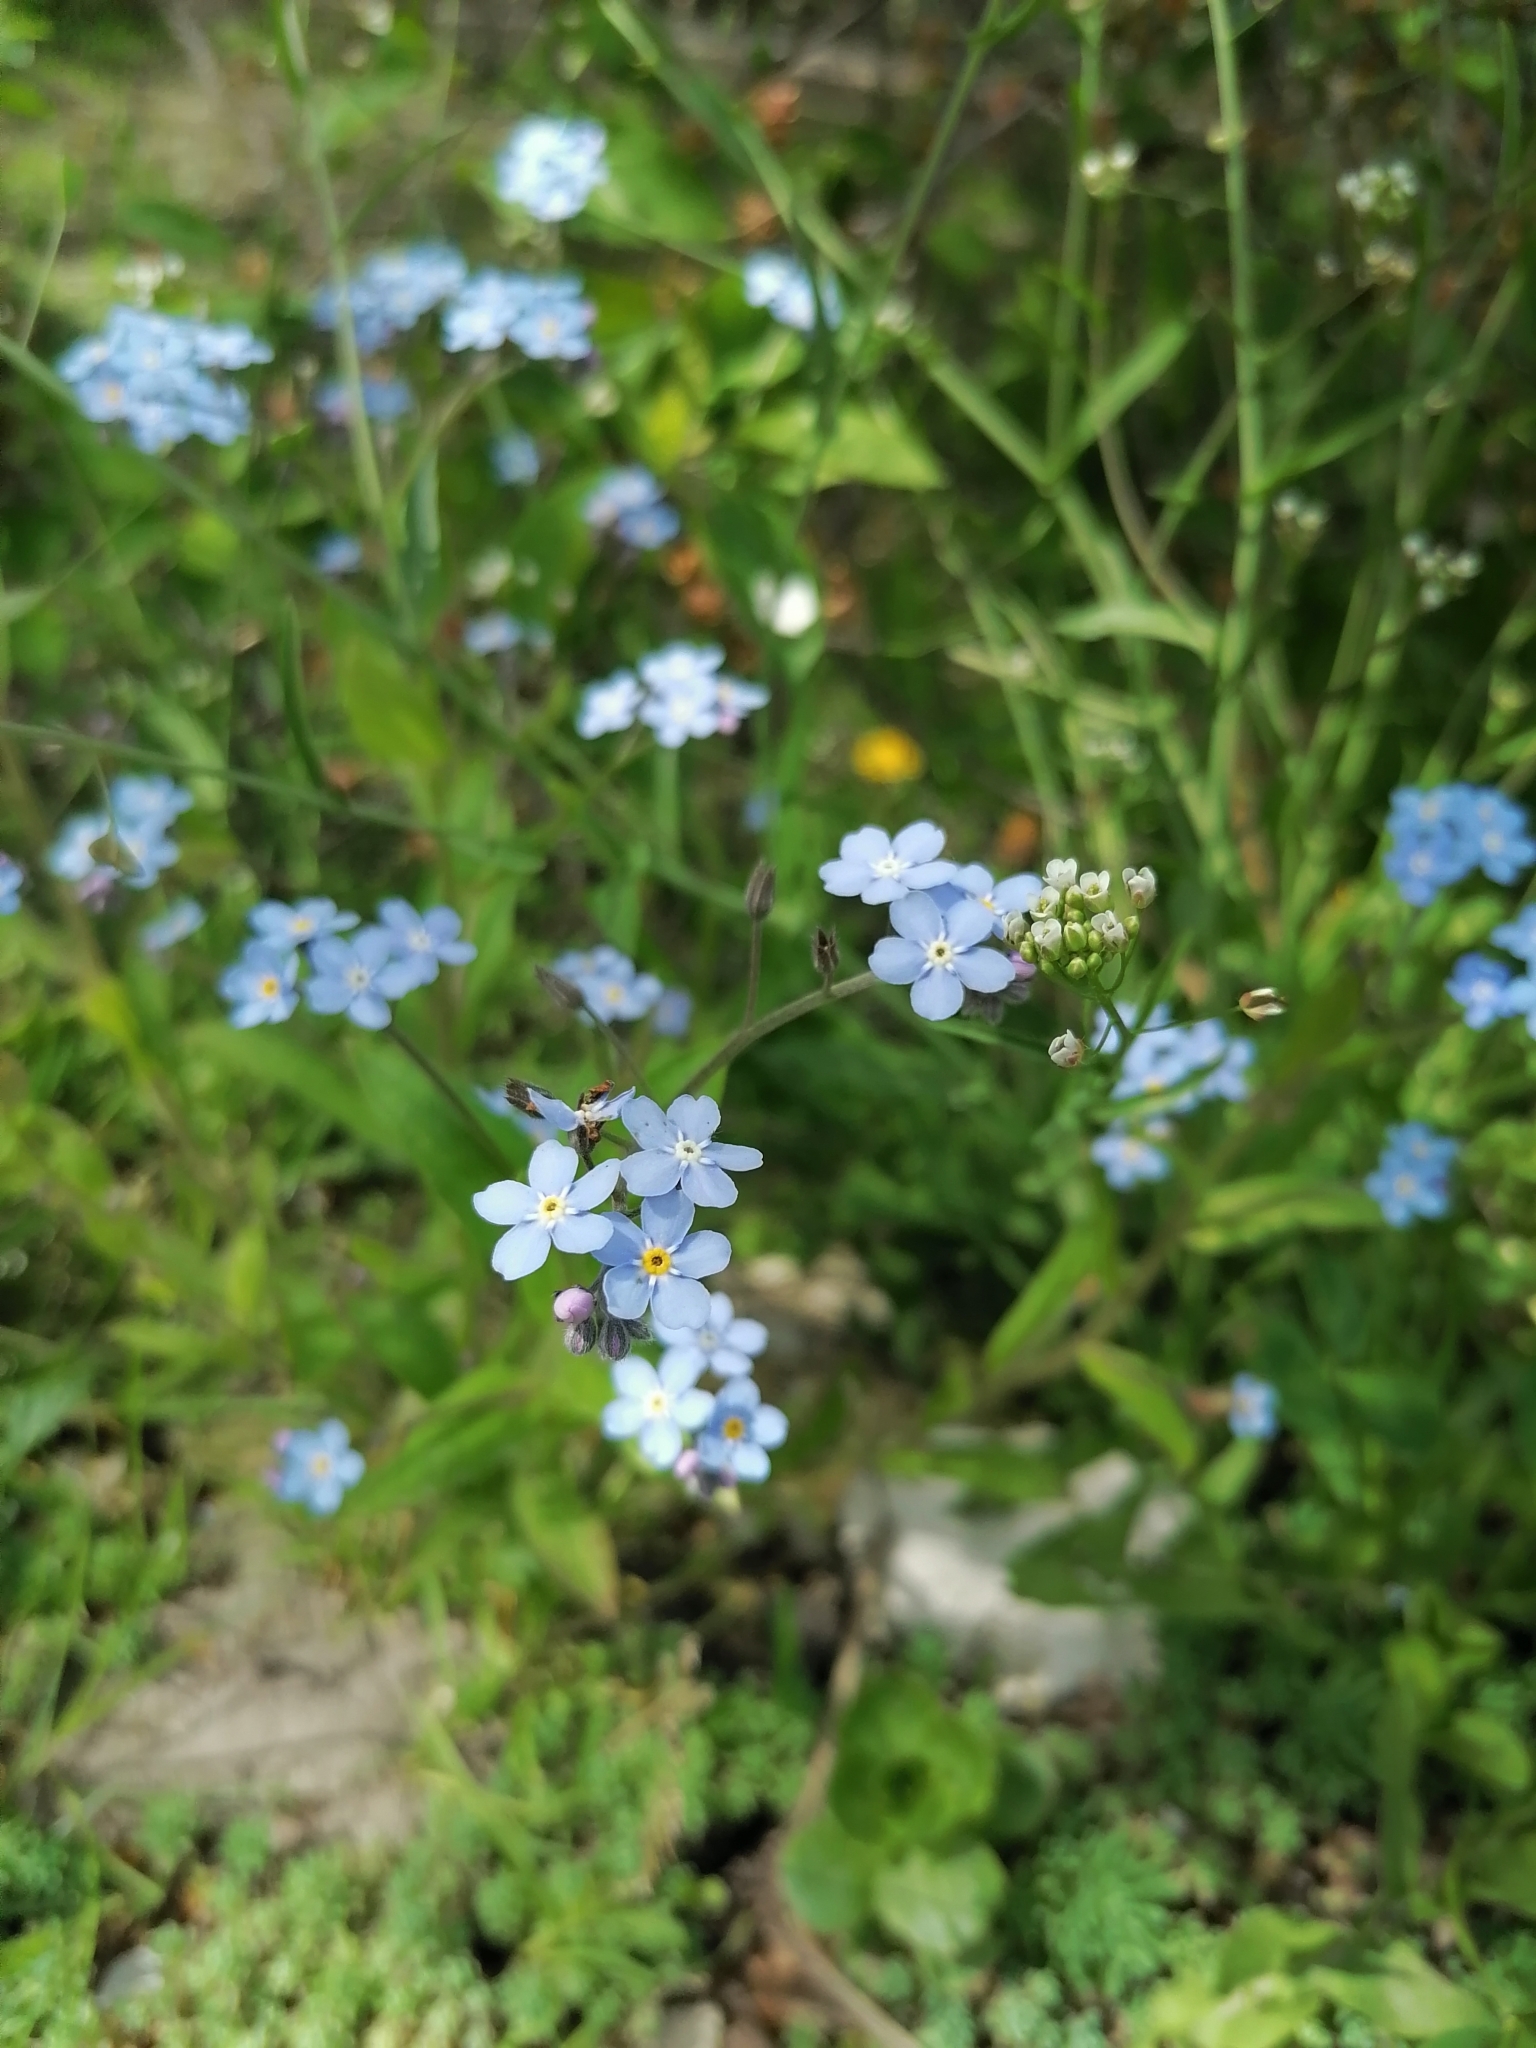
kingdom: Plantae
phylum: Tracheophyta
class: Magnoliopsida
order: Boraginales
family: Boraginaceae
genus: Myosotis
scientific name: Myosotis sylvatica
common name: Wood forget-me-not
